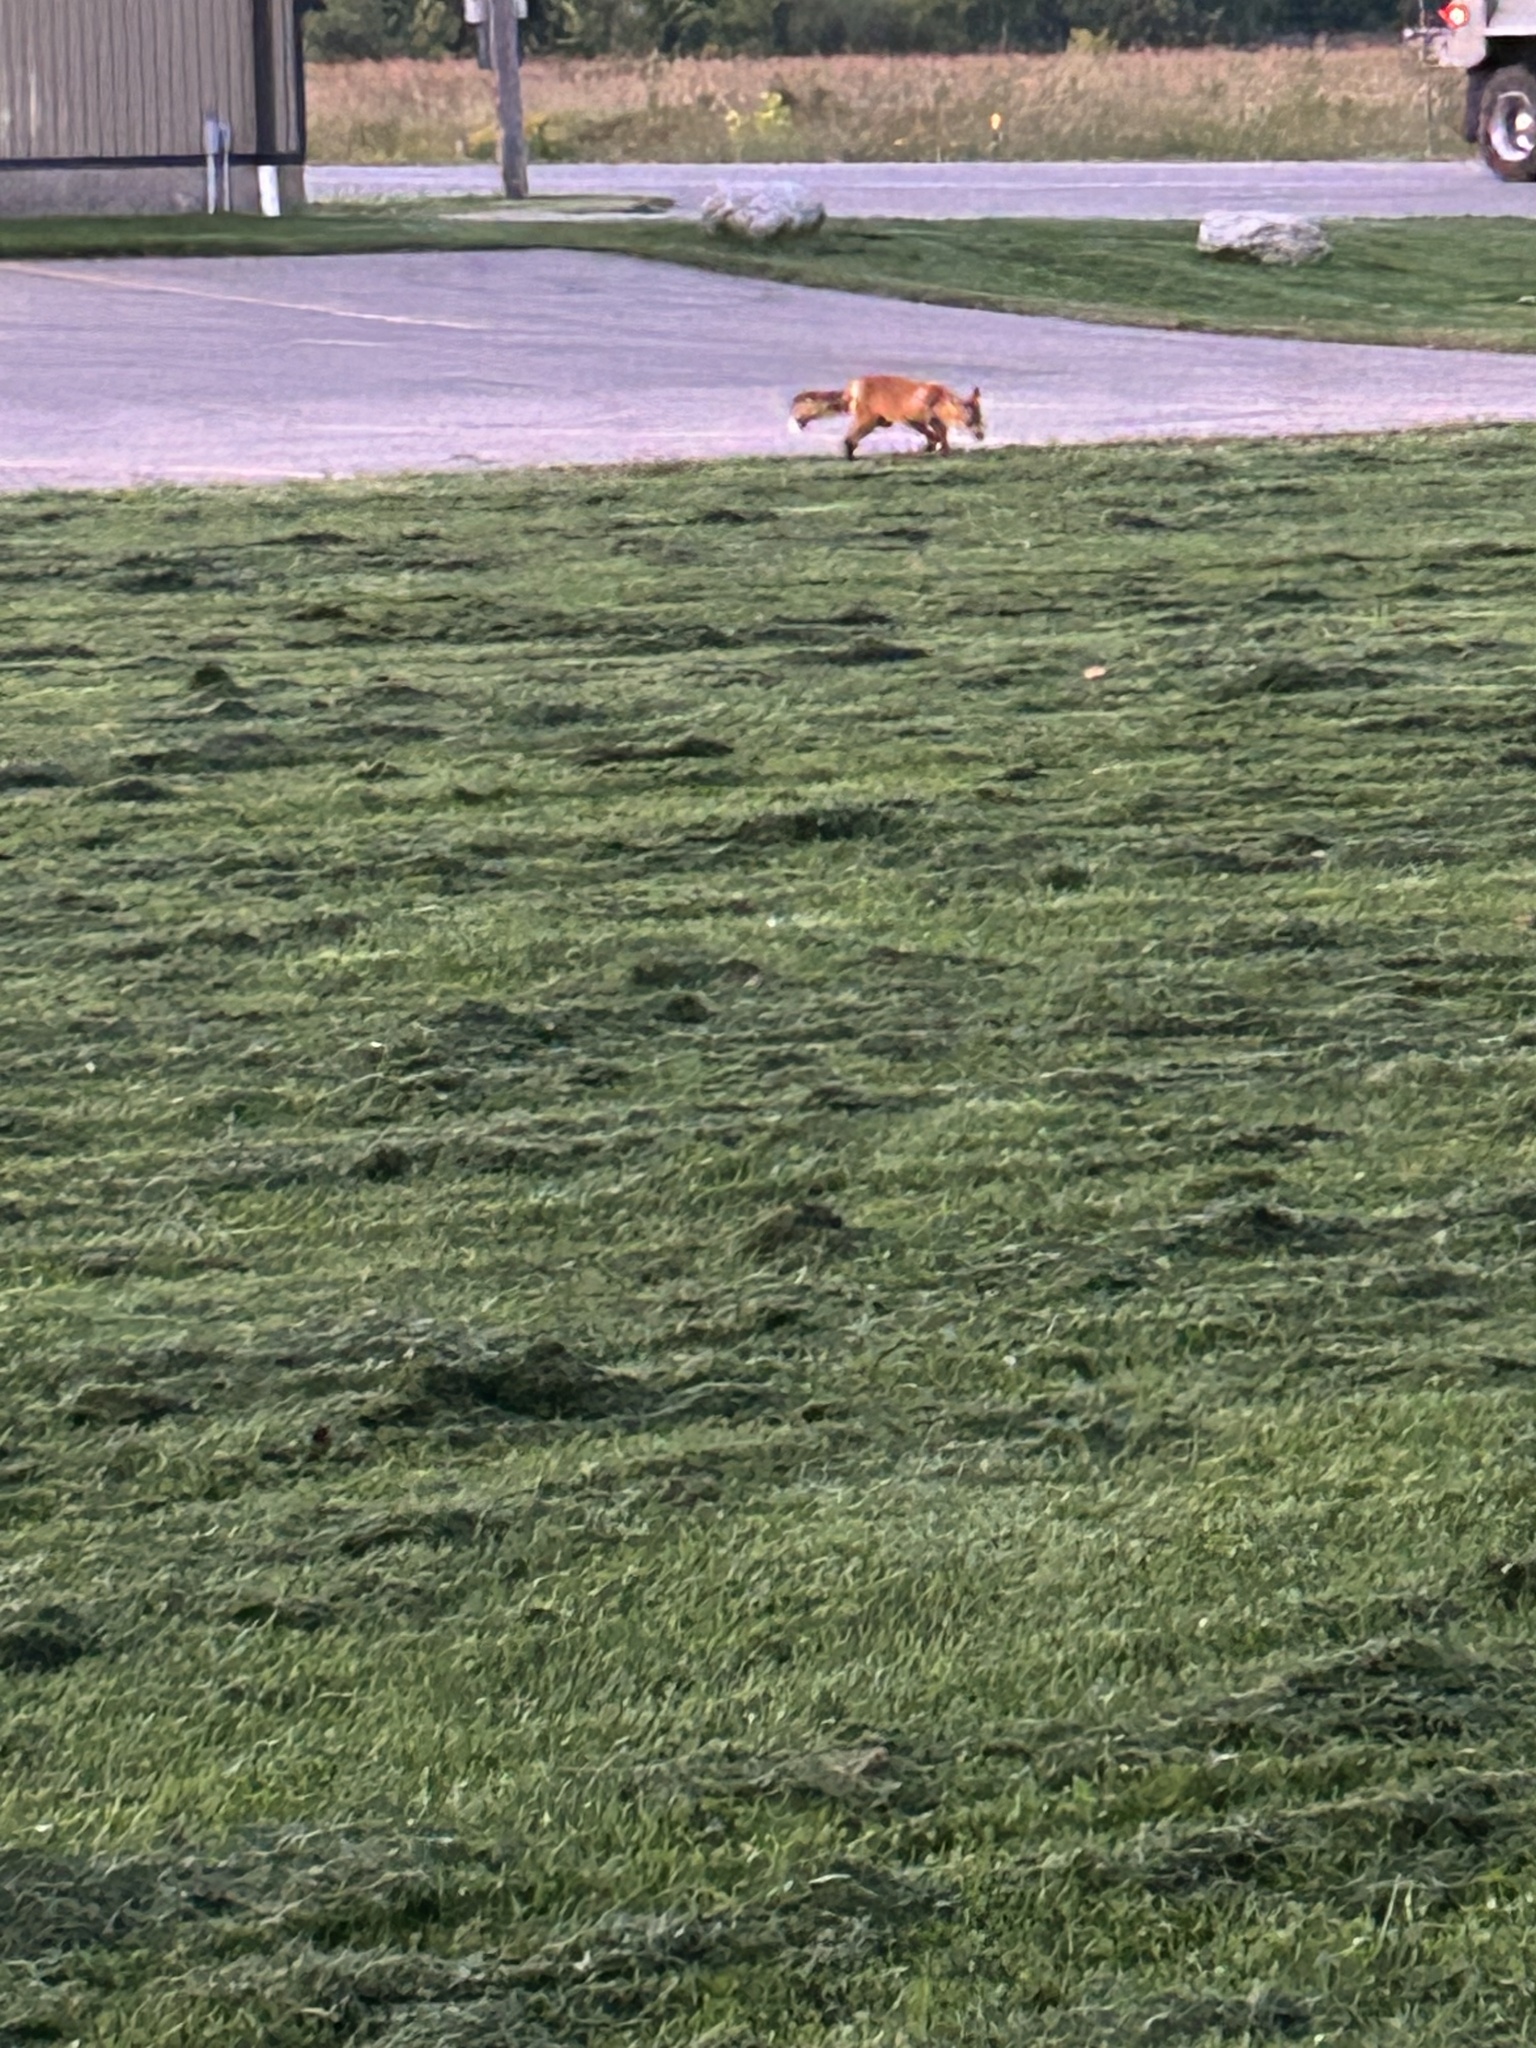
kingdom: Animalia
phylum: Chordata
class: Mammalia
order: Carnivora
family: Canidae
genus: Vulpes
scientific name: Vulpes vulpes
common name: Red fox
